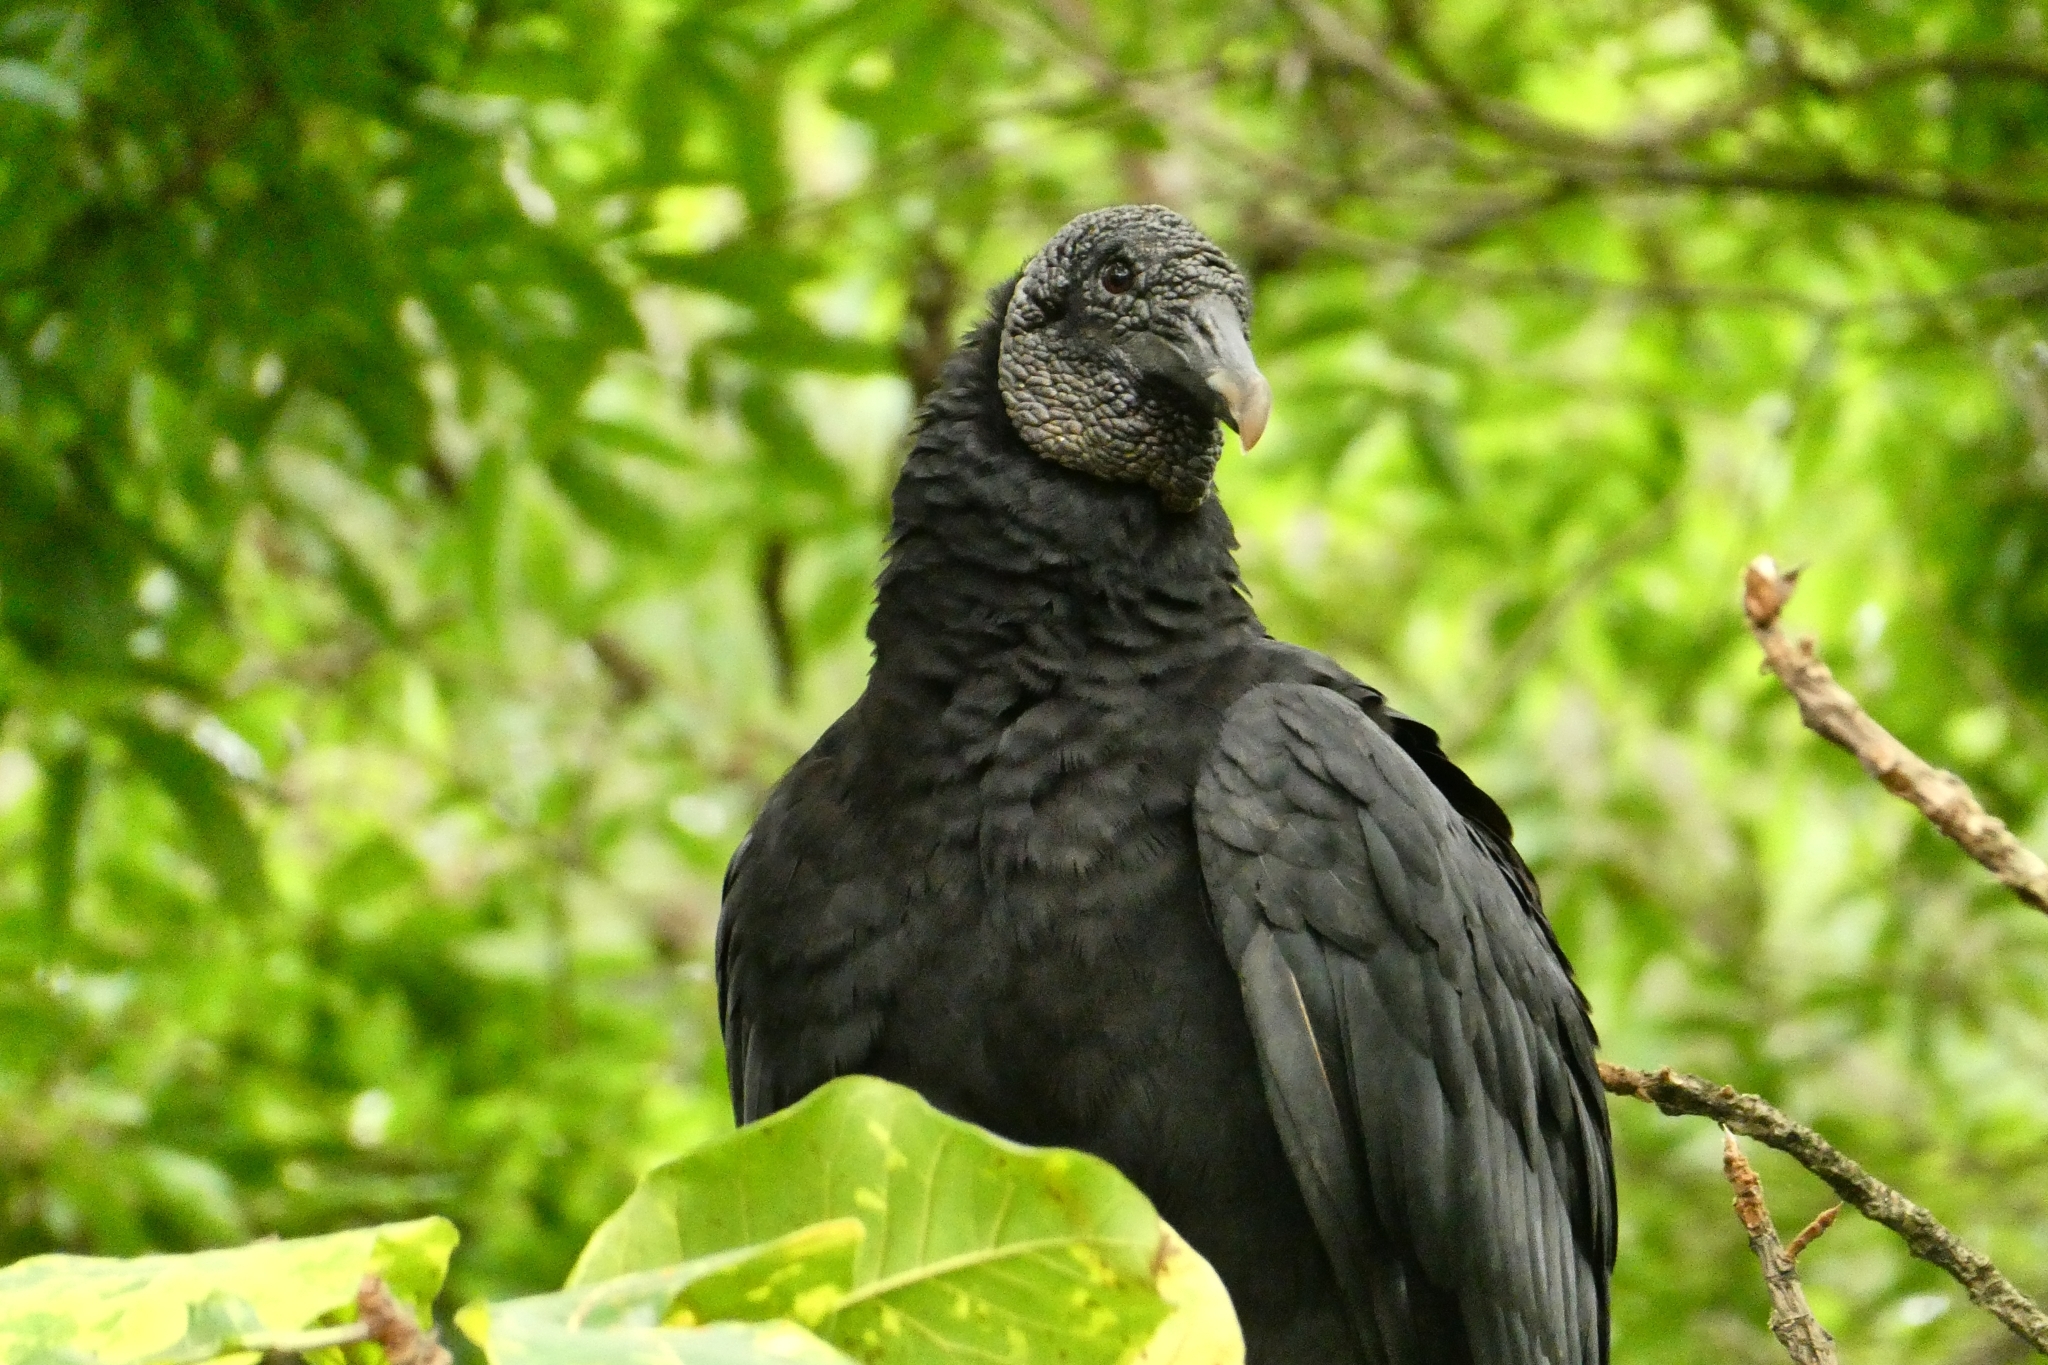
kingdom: Animalia
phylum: Chordata
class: Aves
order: Accipitriformes
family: Cathartidae
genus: Coragyps
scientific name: Coragyps atratus
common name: Black vulture
